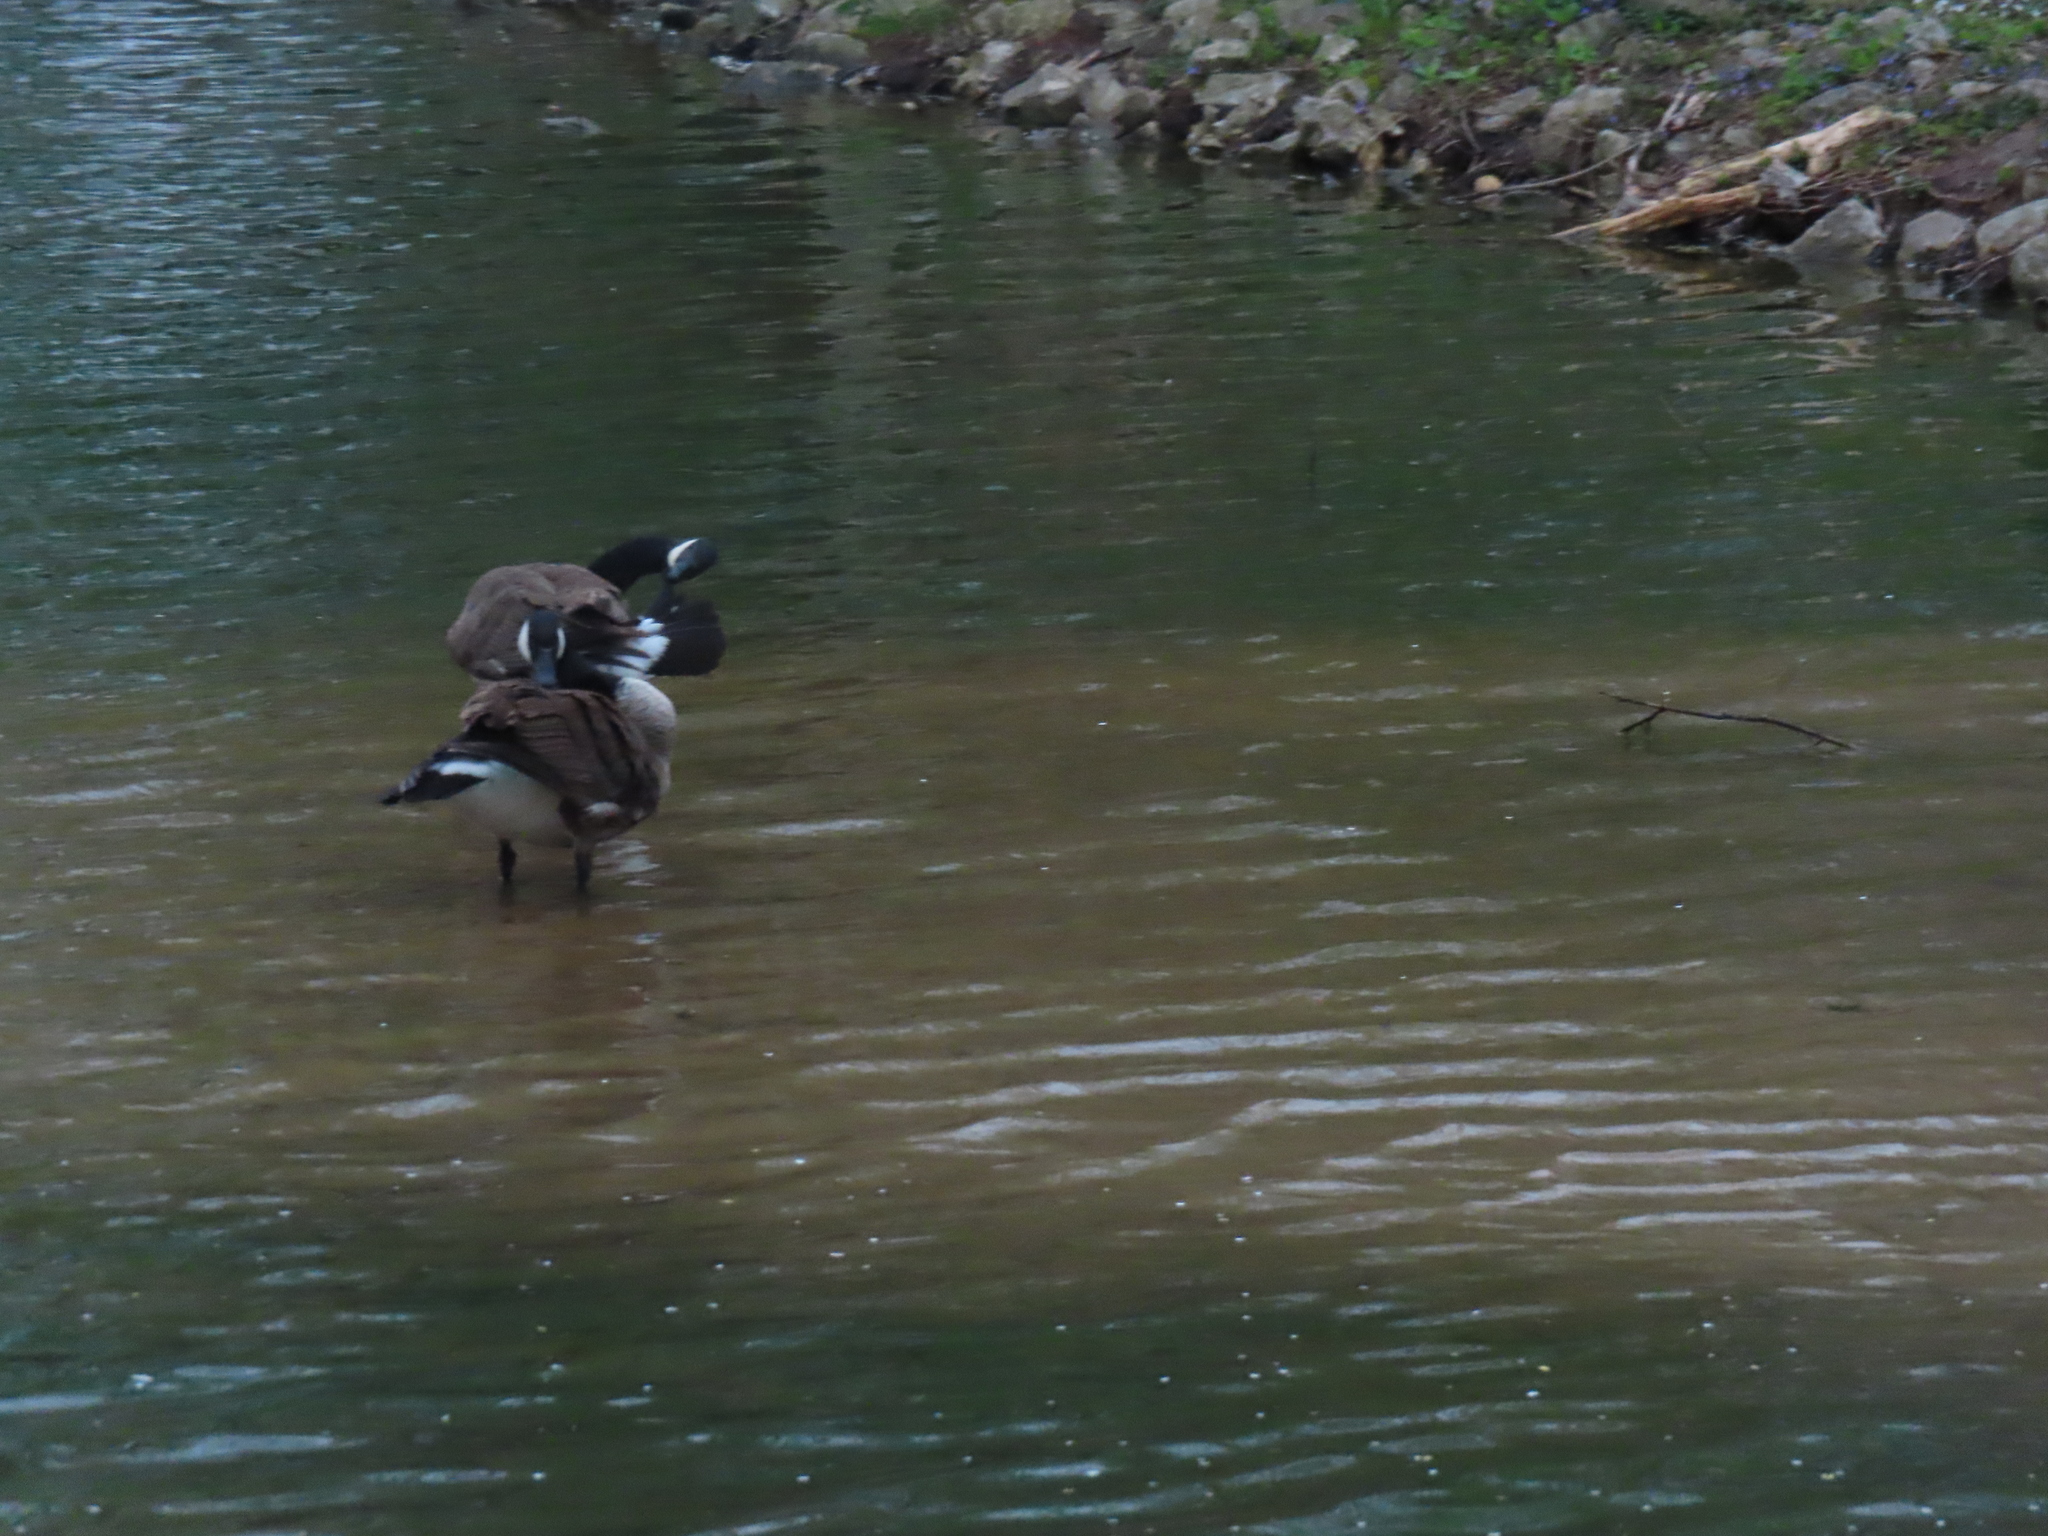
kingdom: Animalia
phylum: Chordata
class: Aves
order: Anseriformes
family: Anatidae
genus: Branta
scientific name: Branta canadensis
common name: Canada goose
